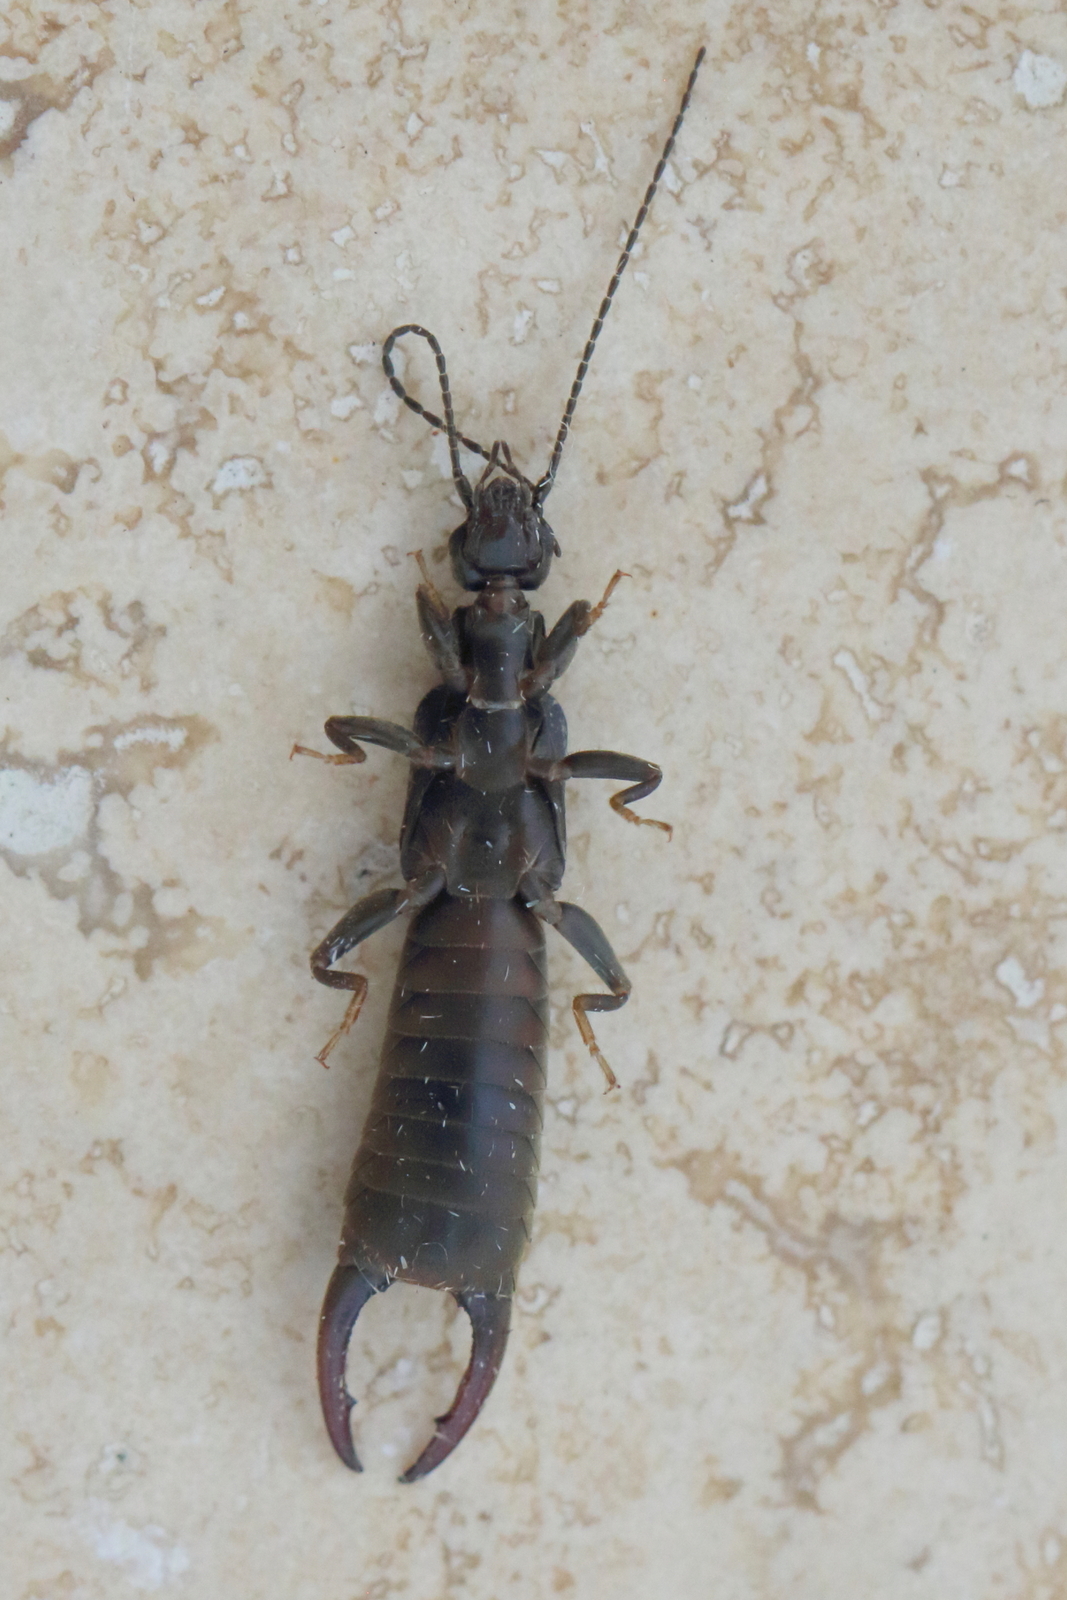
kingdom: Animalia
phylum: Arthropoda
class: Insecta
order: Dermaptera
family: Labiduridae
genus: Nala
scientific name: Nala lividipes
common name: Earwig
